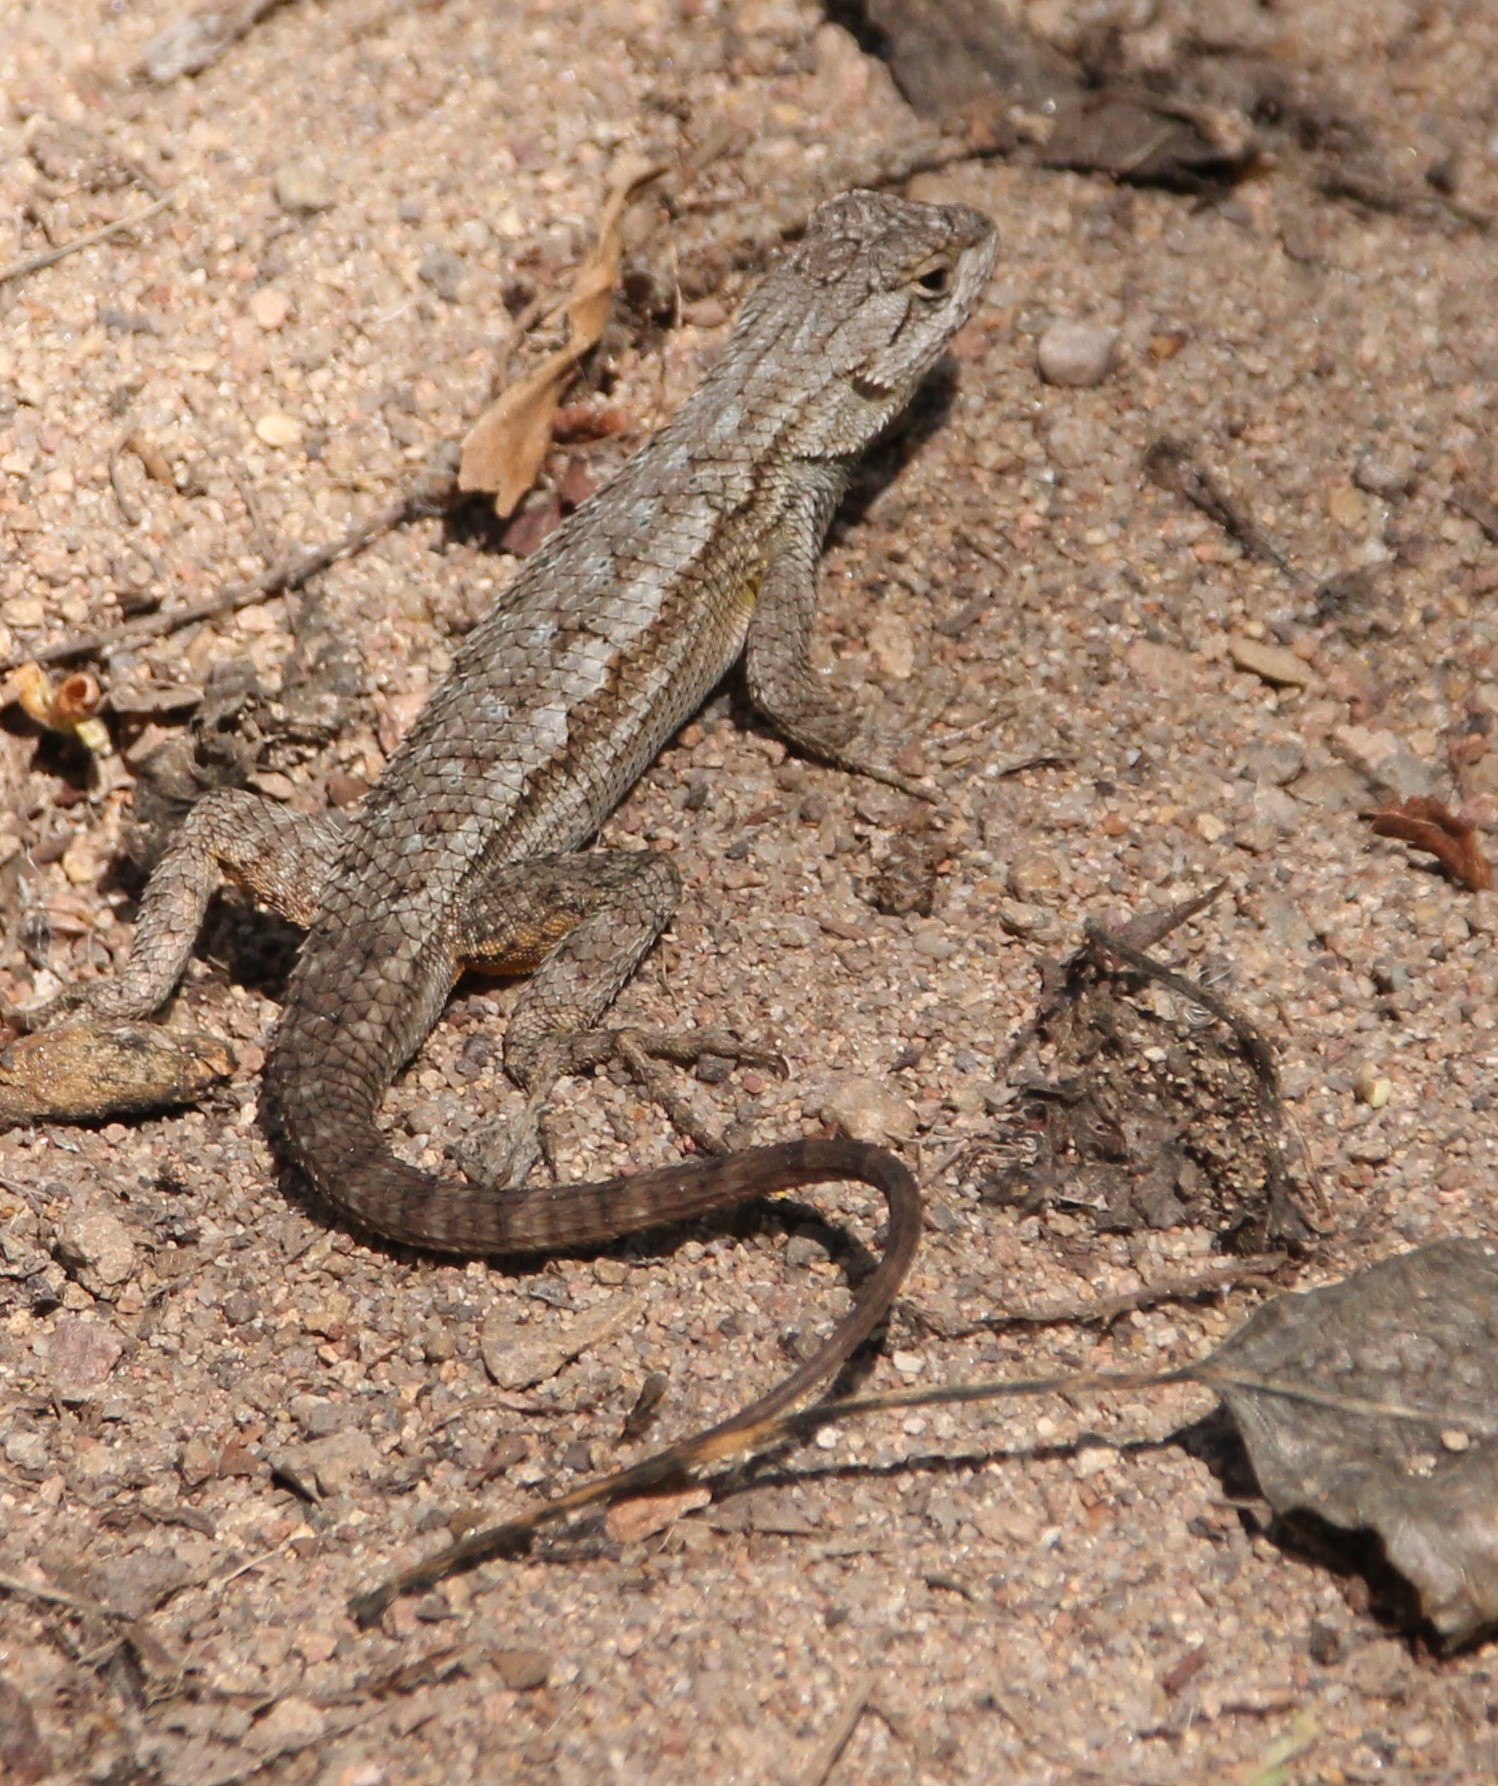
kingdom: Animalia
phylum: Chordata
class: Squamata
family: Phrynosomatidae
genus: Sceloporus
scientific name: Sceloporus occidentalis
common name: Western fence lizard
